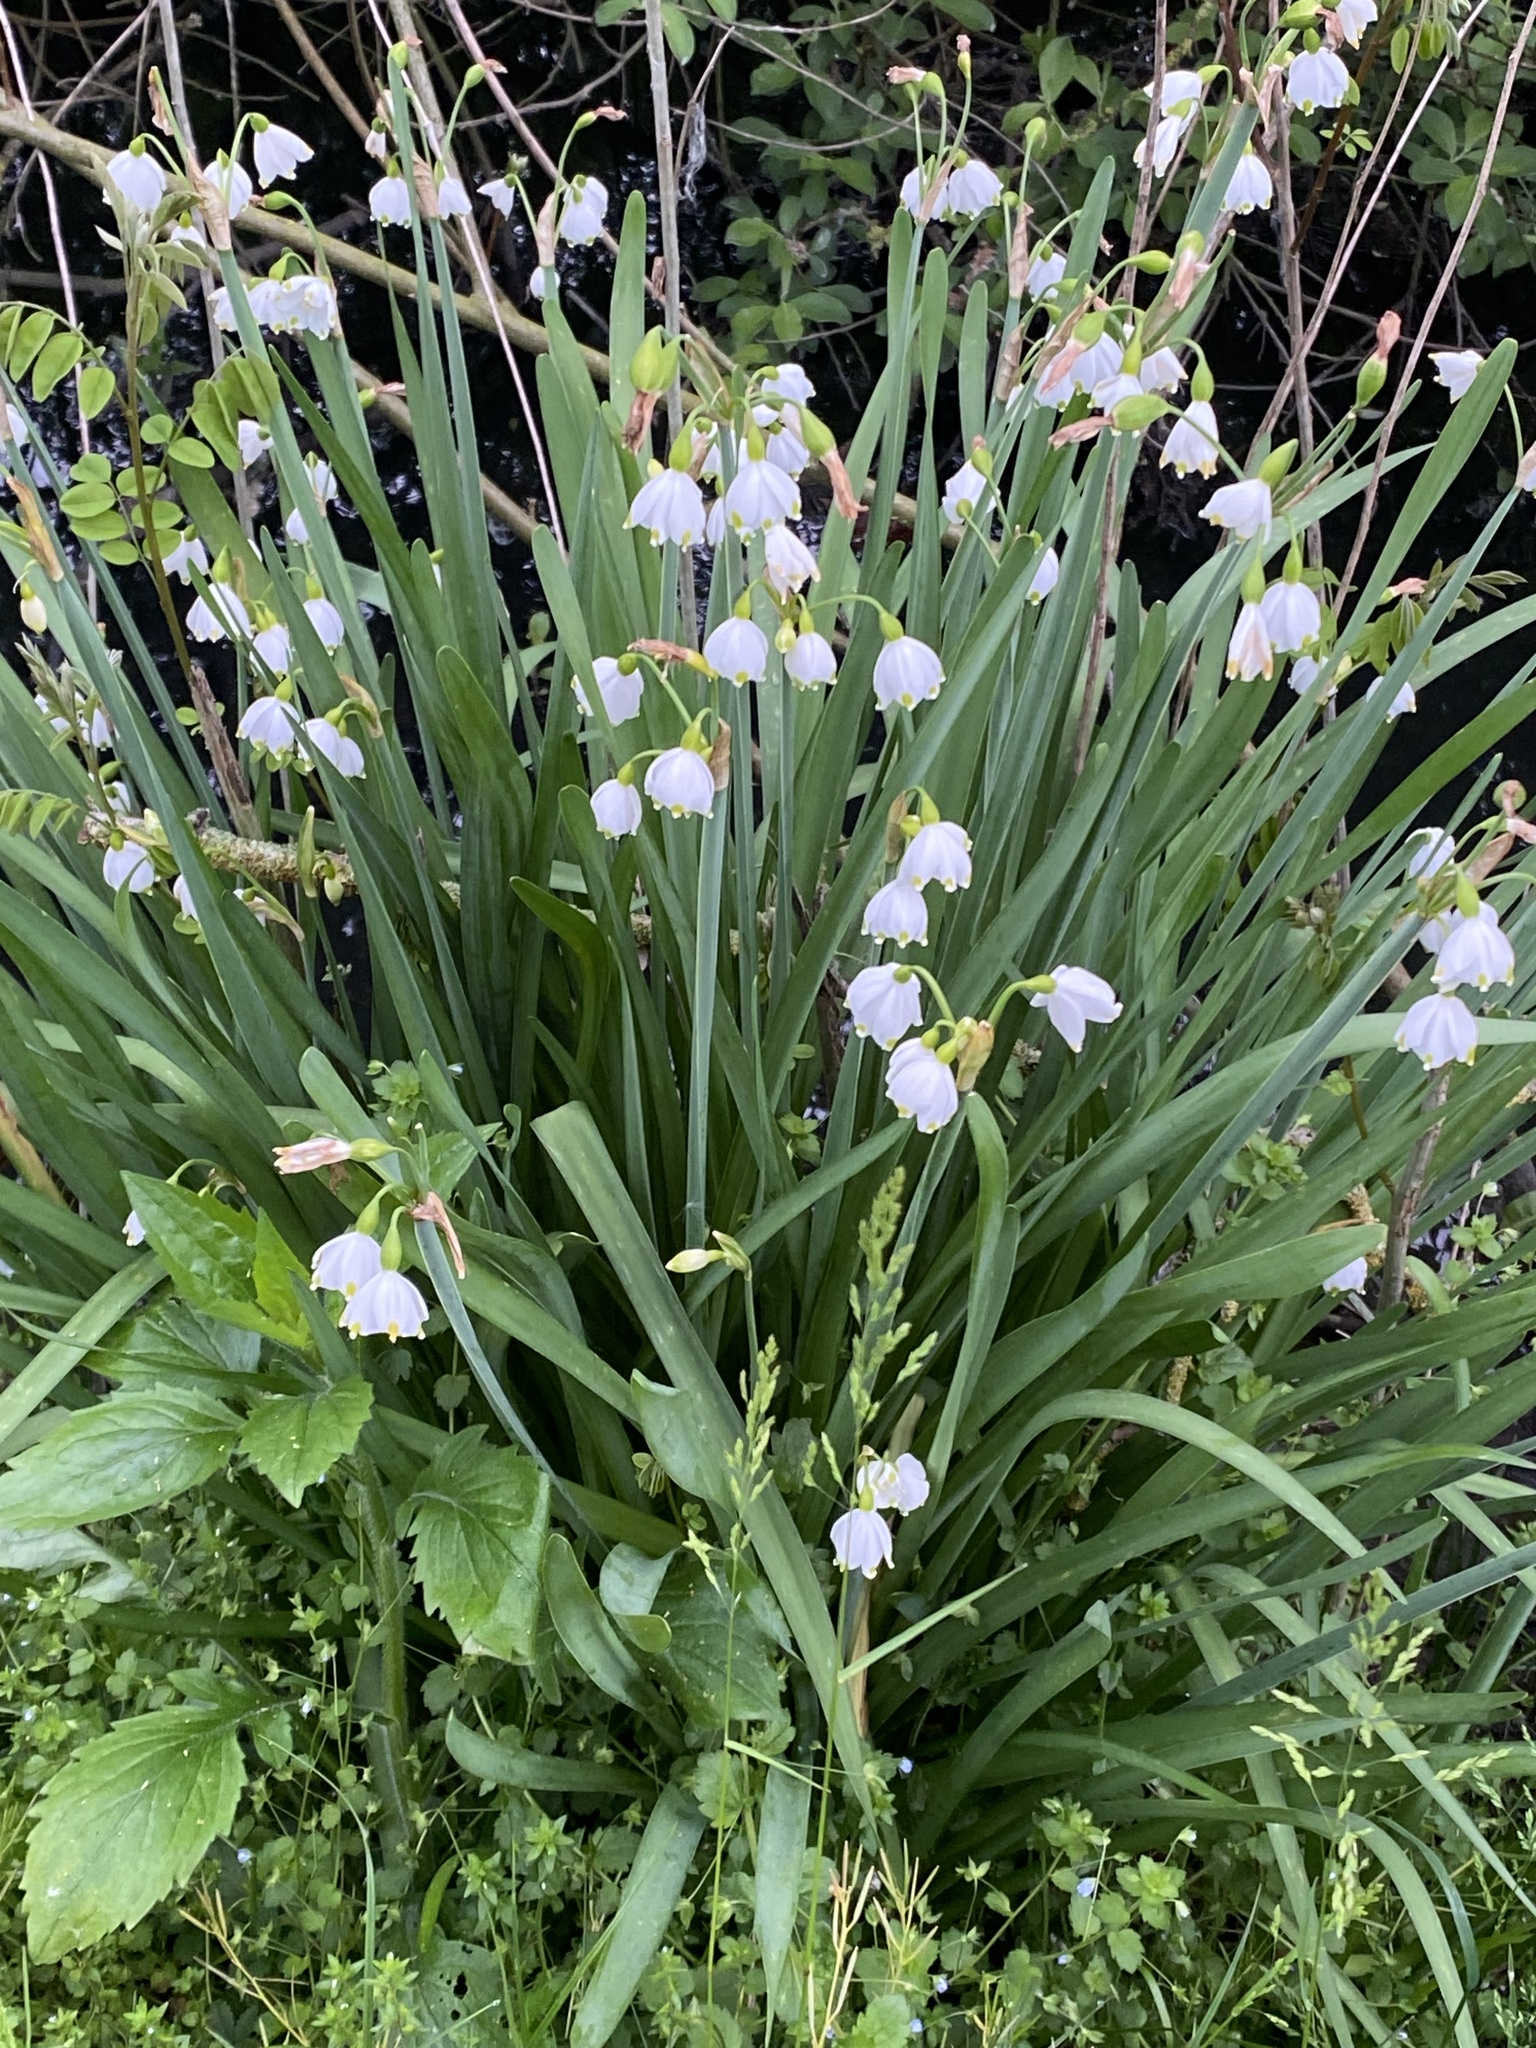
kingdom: Plantae
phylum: Tracheophyta
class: Liliopsida
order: Asparagales
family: Amaryllidaceae
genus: Leucojum
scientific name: Leucojum aestivum
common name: Summer snowflake
